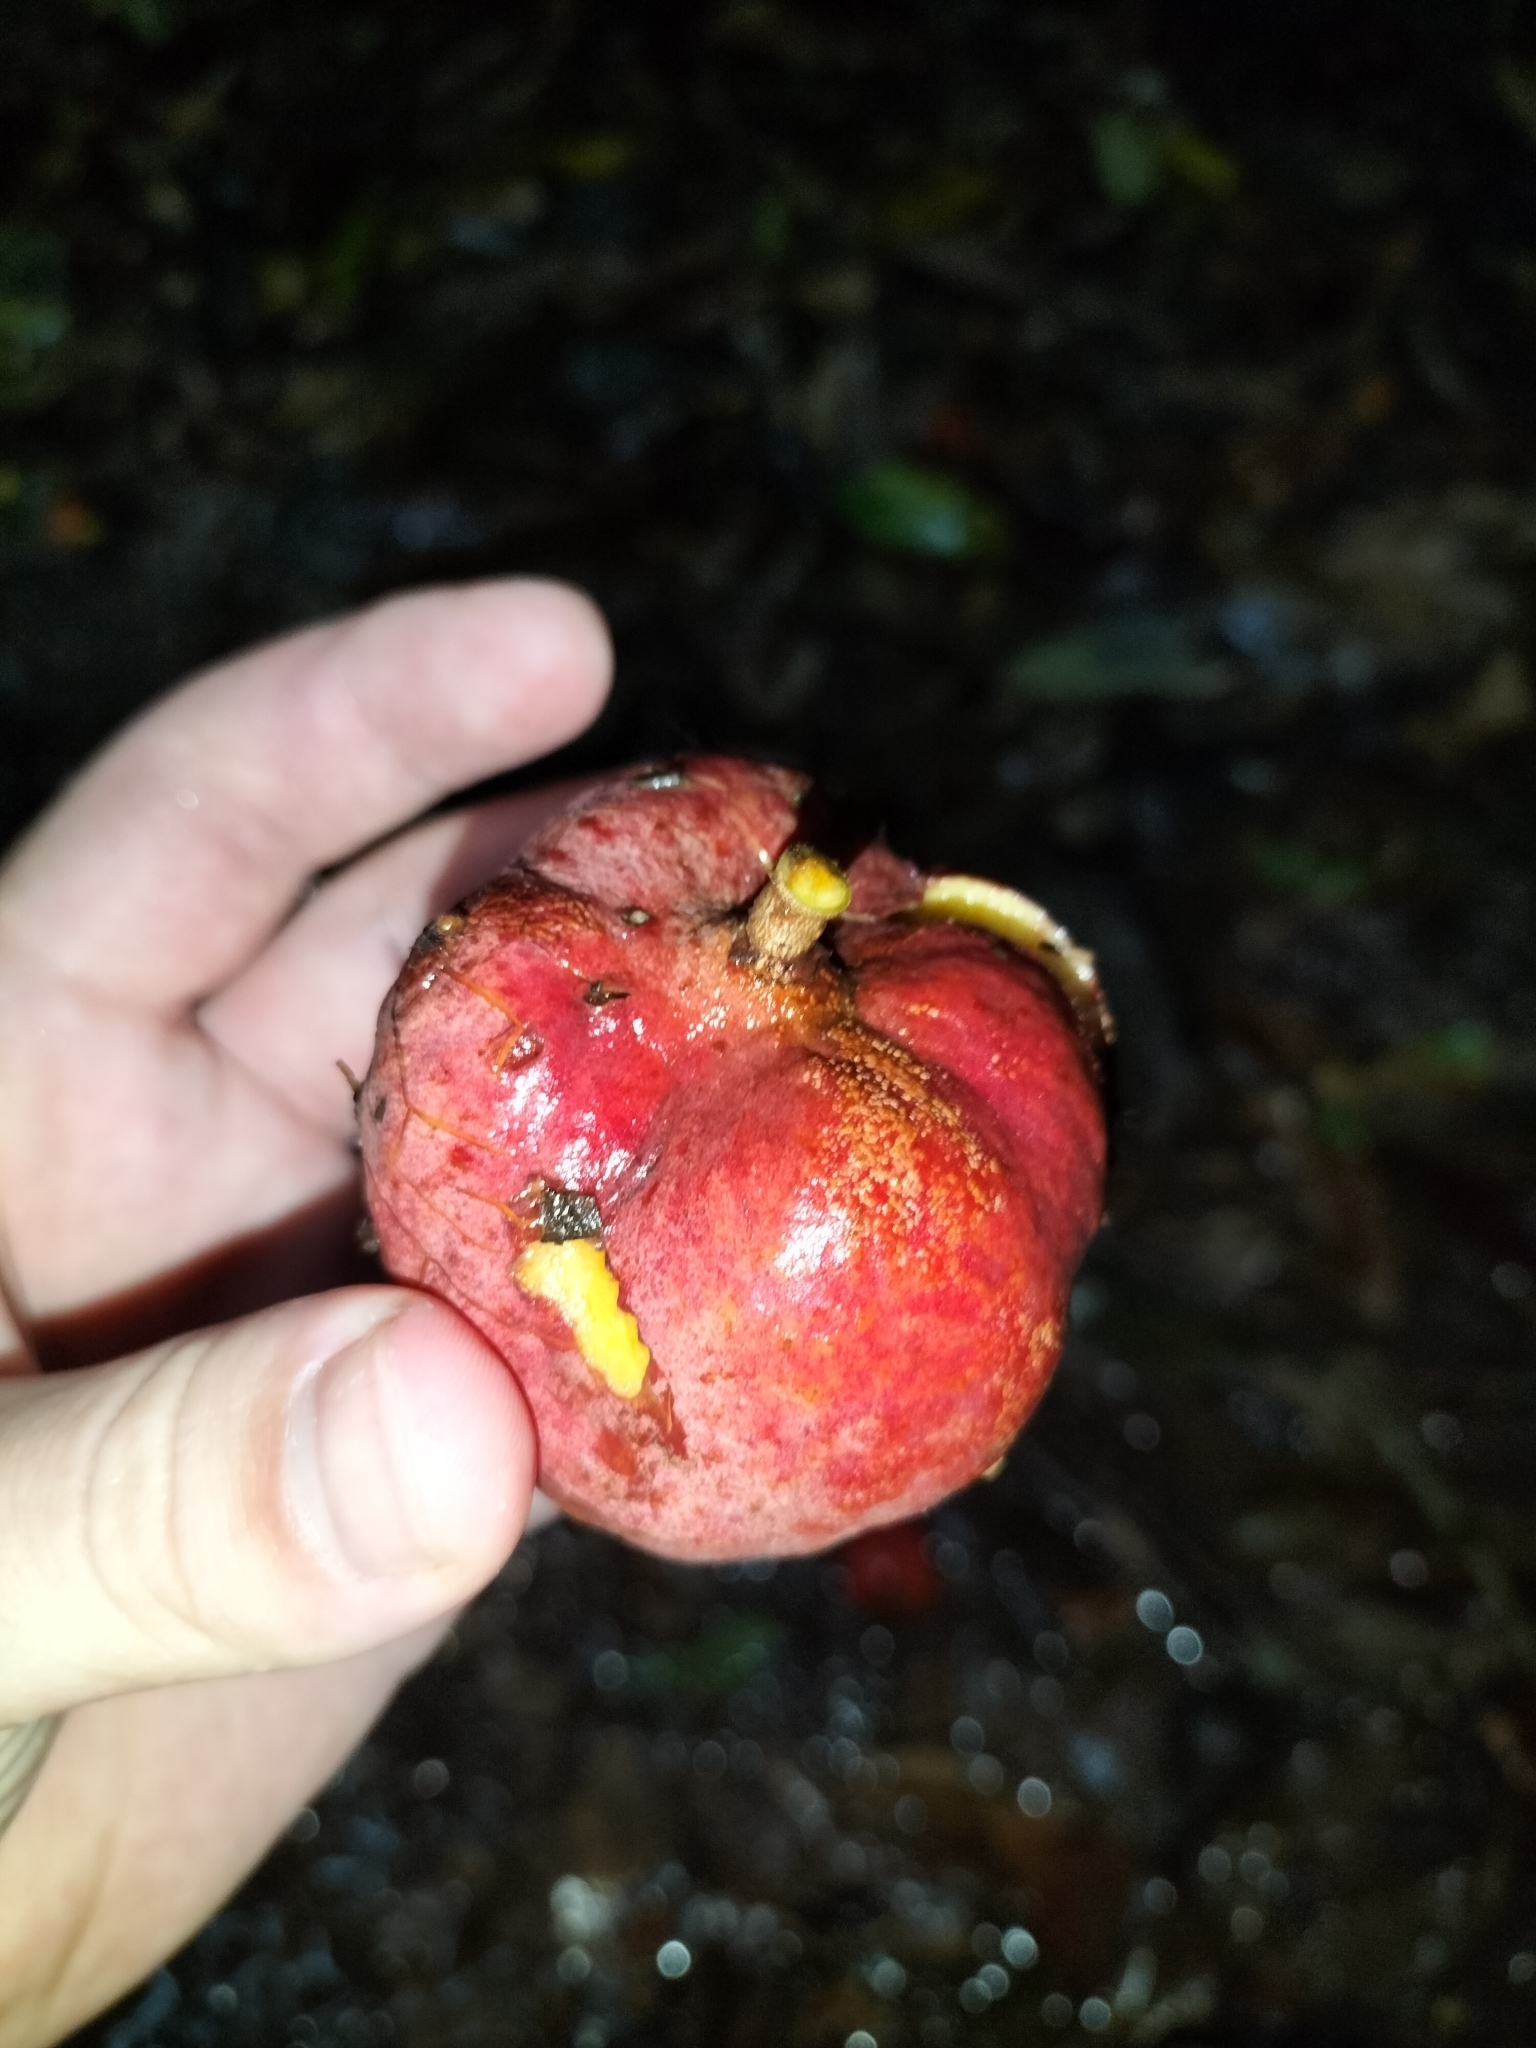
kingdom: Plantae
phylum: Tracheophyta
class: Magnoliopsida
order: Sapindales
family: Sapindaceae
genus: Castanospora
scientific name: Castanospora alphandii
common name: Brown-tamarind
